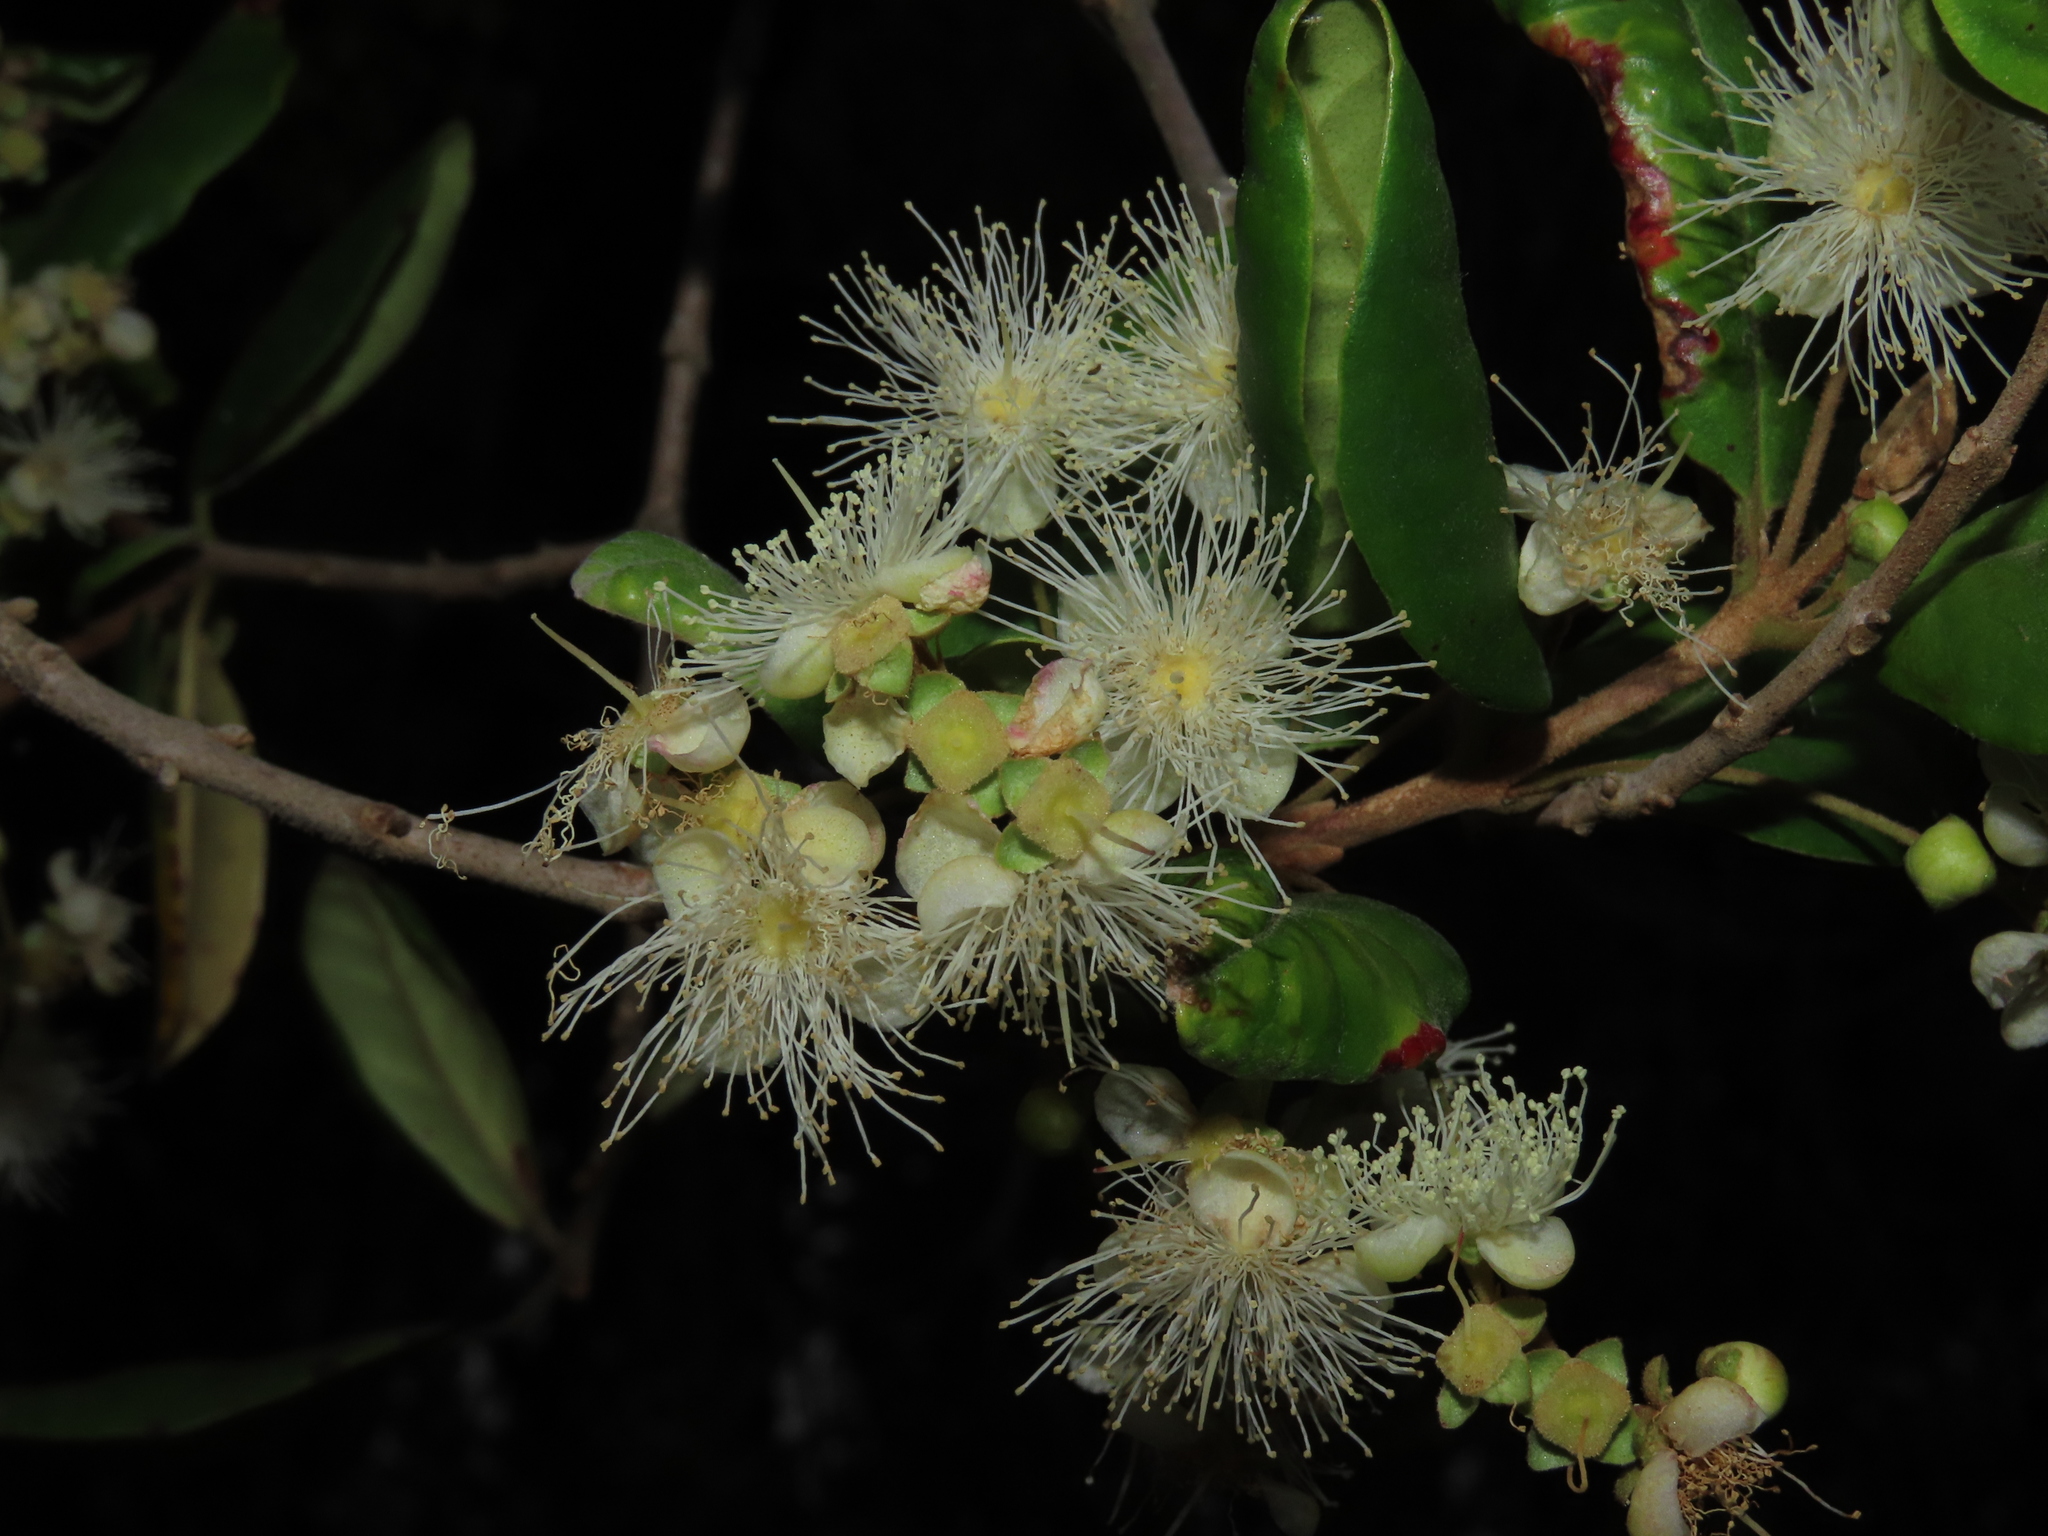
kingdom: Plantae
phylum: Tracheophyta
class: Magnoliopsida
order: Myrtales
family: Myrtaceae
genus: Myrceugenia
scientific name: Myrceugenia exsucca
